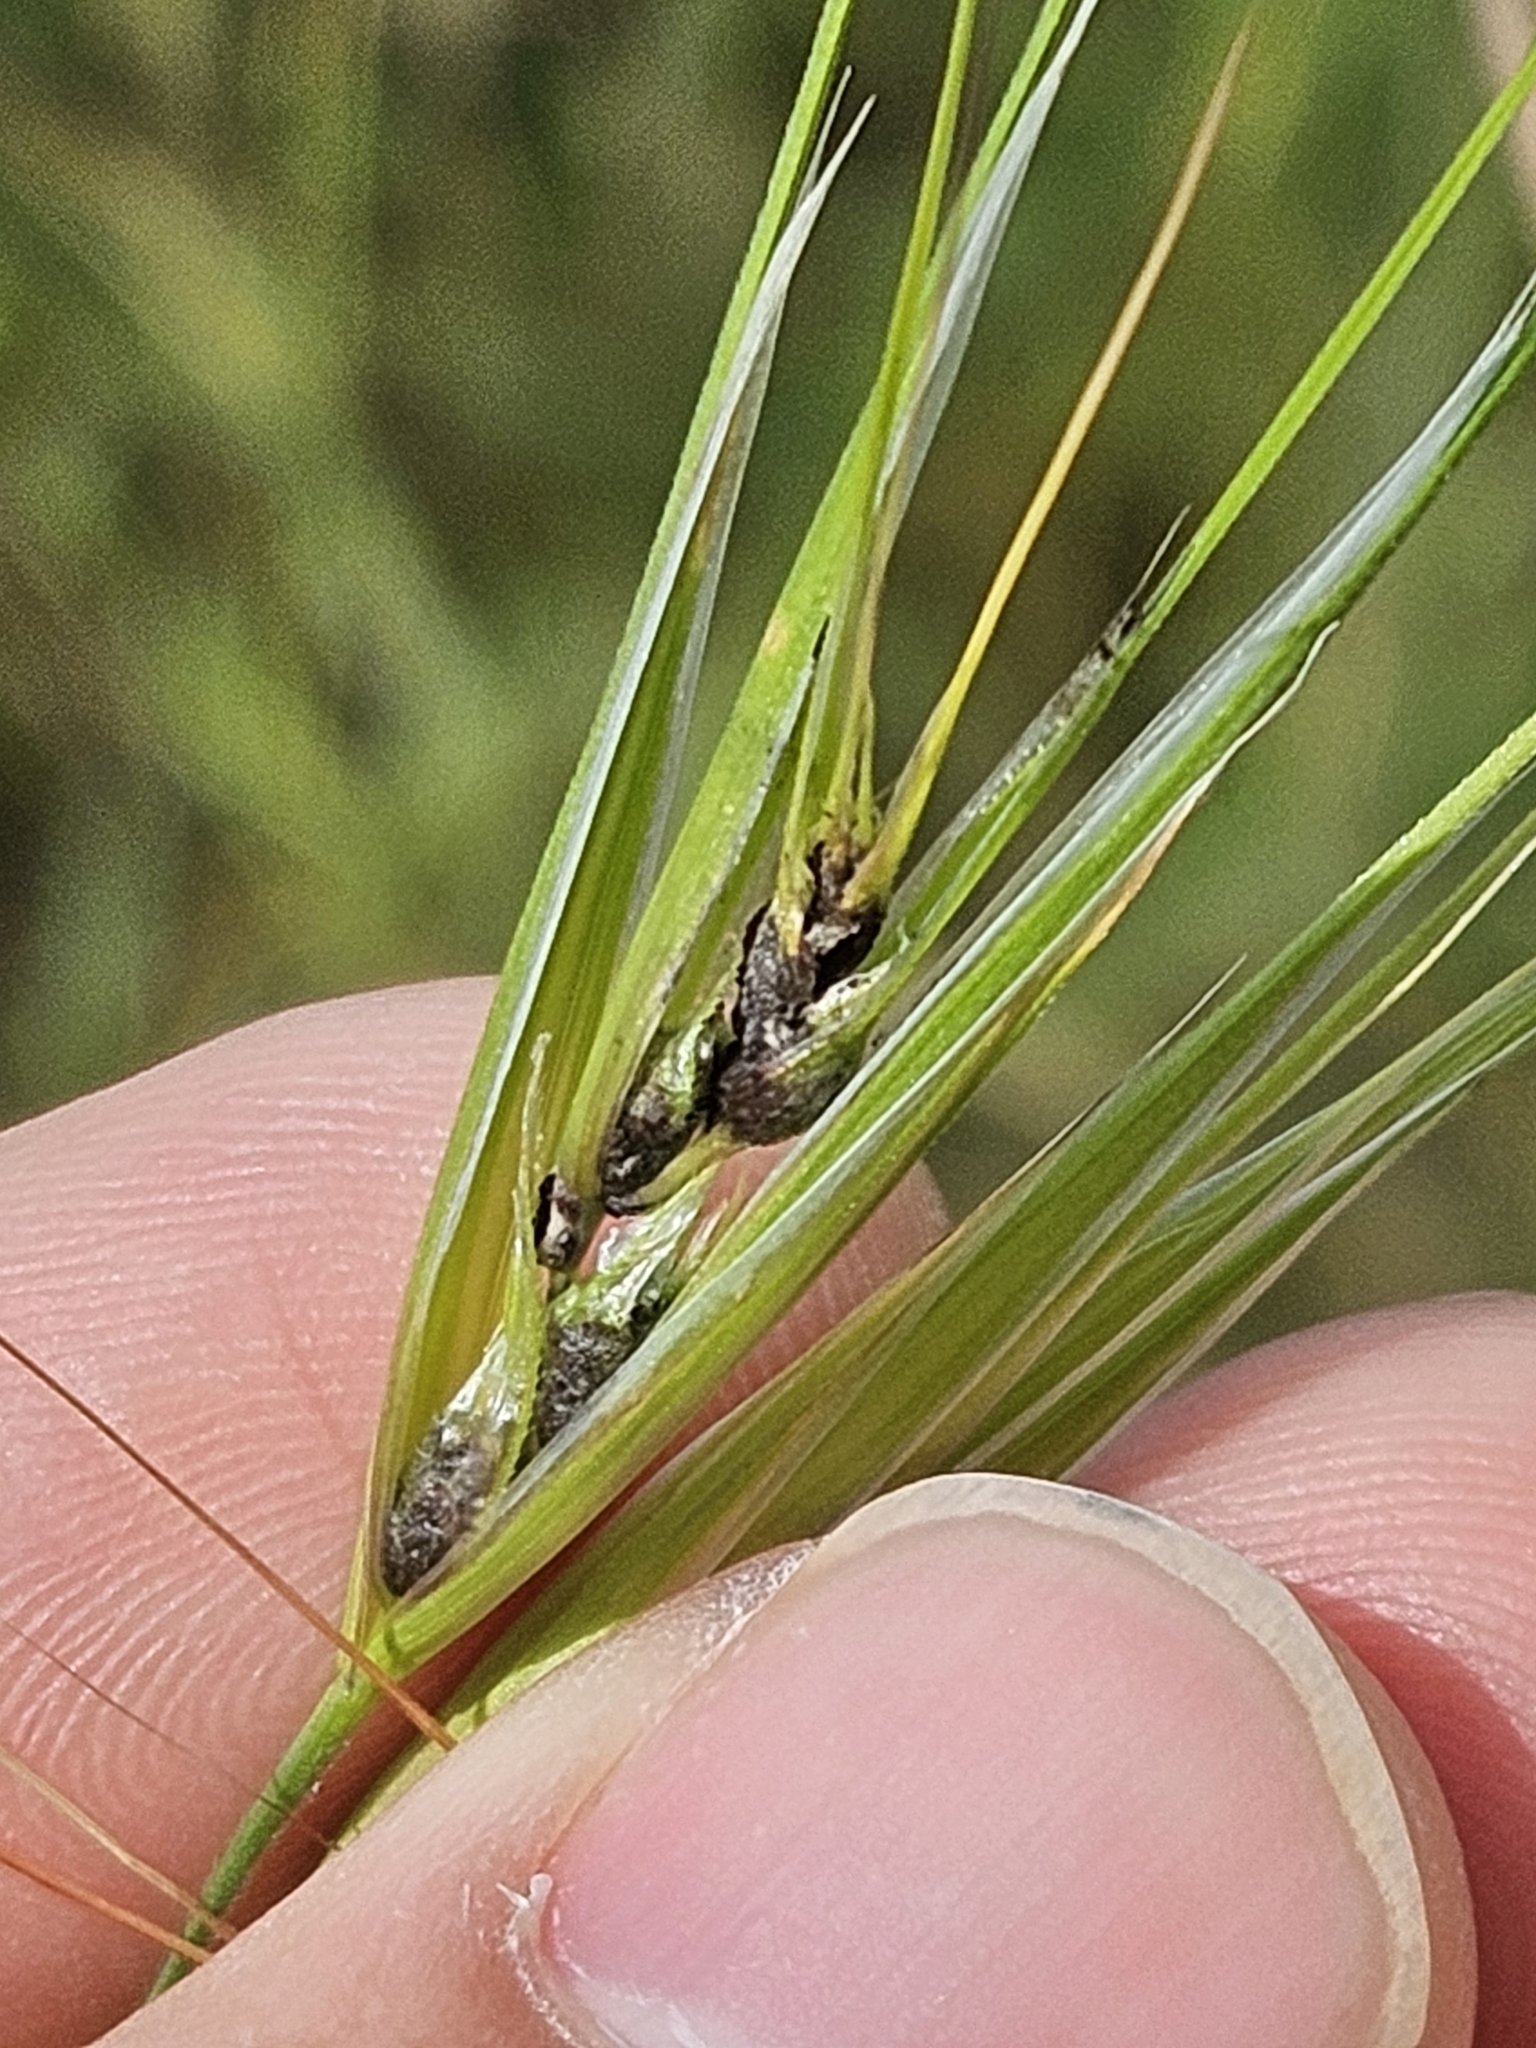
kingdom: Fungi
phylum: Basidiomycota
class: Ustilaginomycetes
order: Ustilaginales
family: Ustilaginaceae
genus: Ustilago
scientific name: Ustilago bullata
